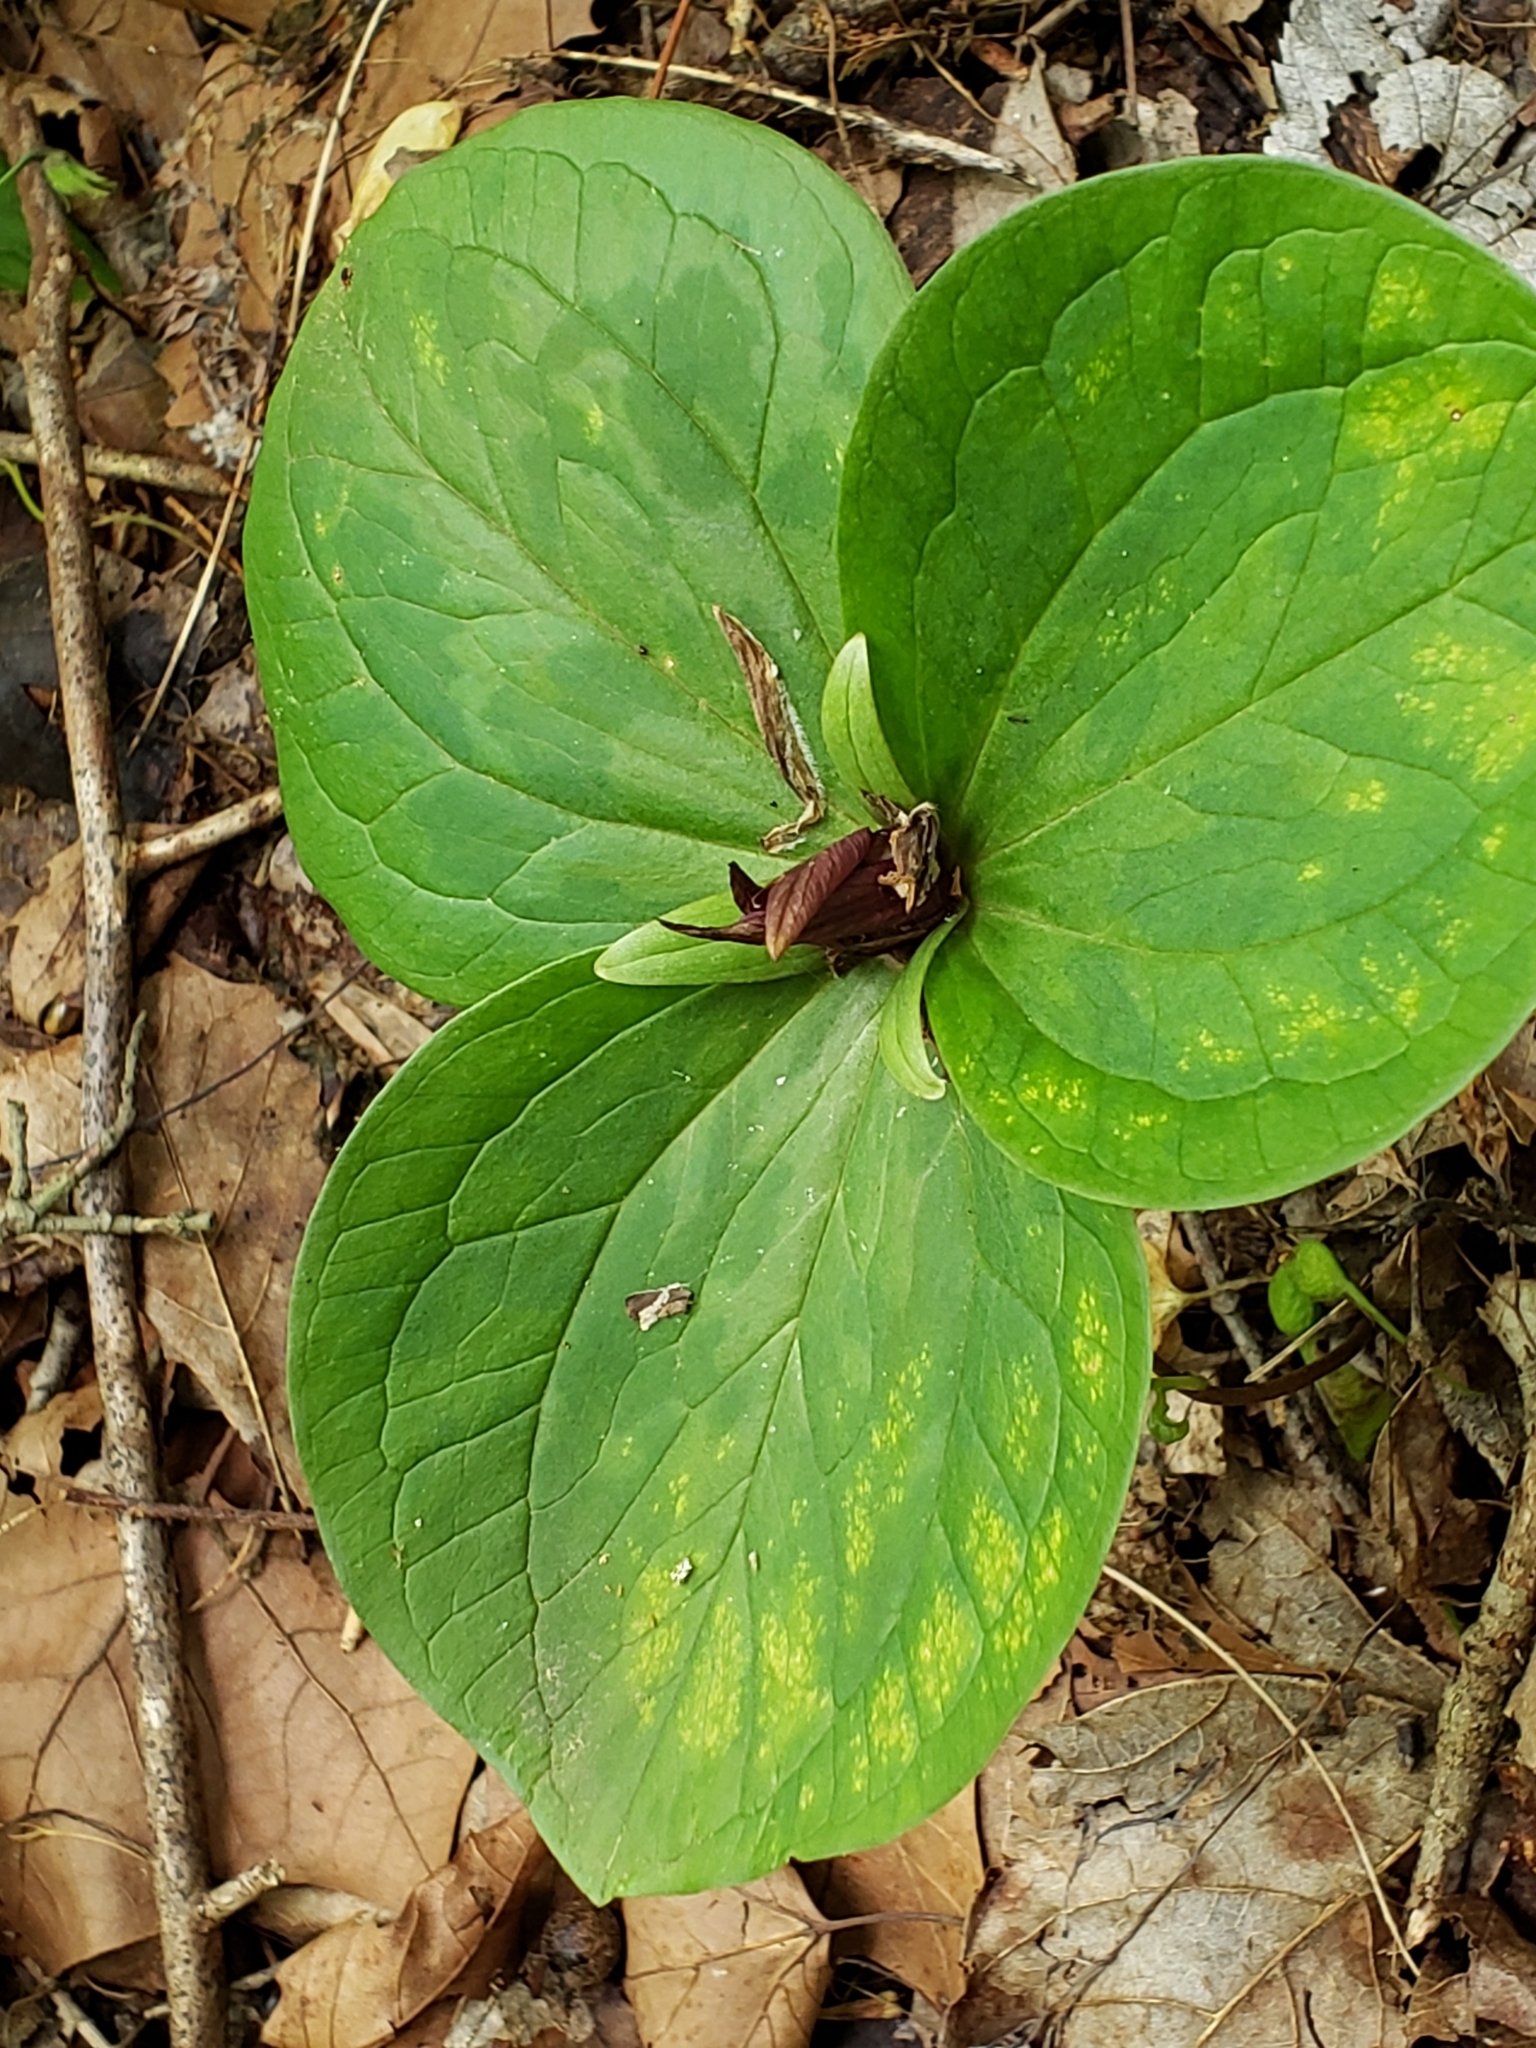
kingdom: Plantae
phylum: Tracheophyta
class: Liliopsida
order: Liliales
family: Melanthiaceae
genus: Trillium
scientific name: Trillium sessile
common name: Sessile trillium
